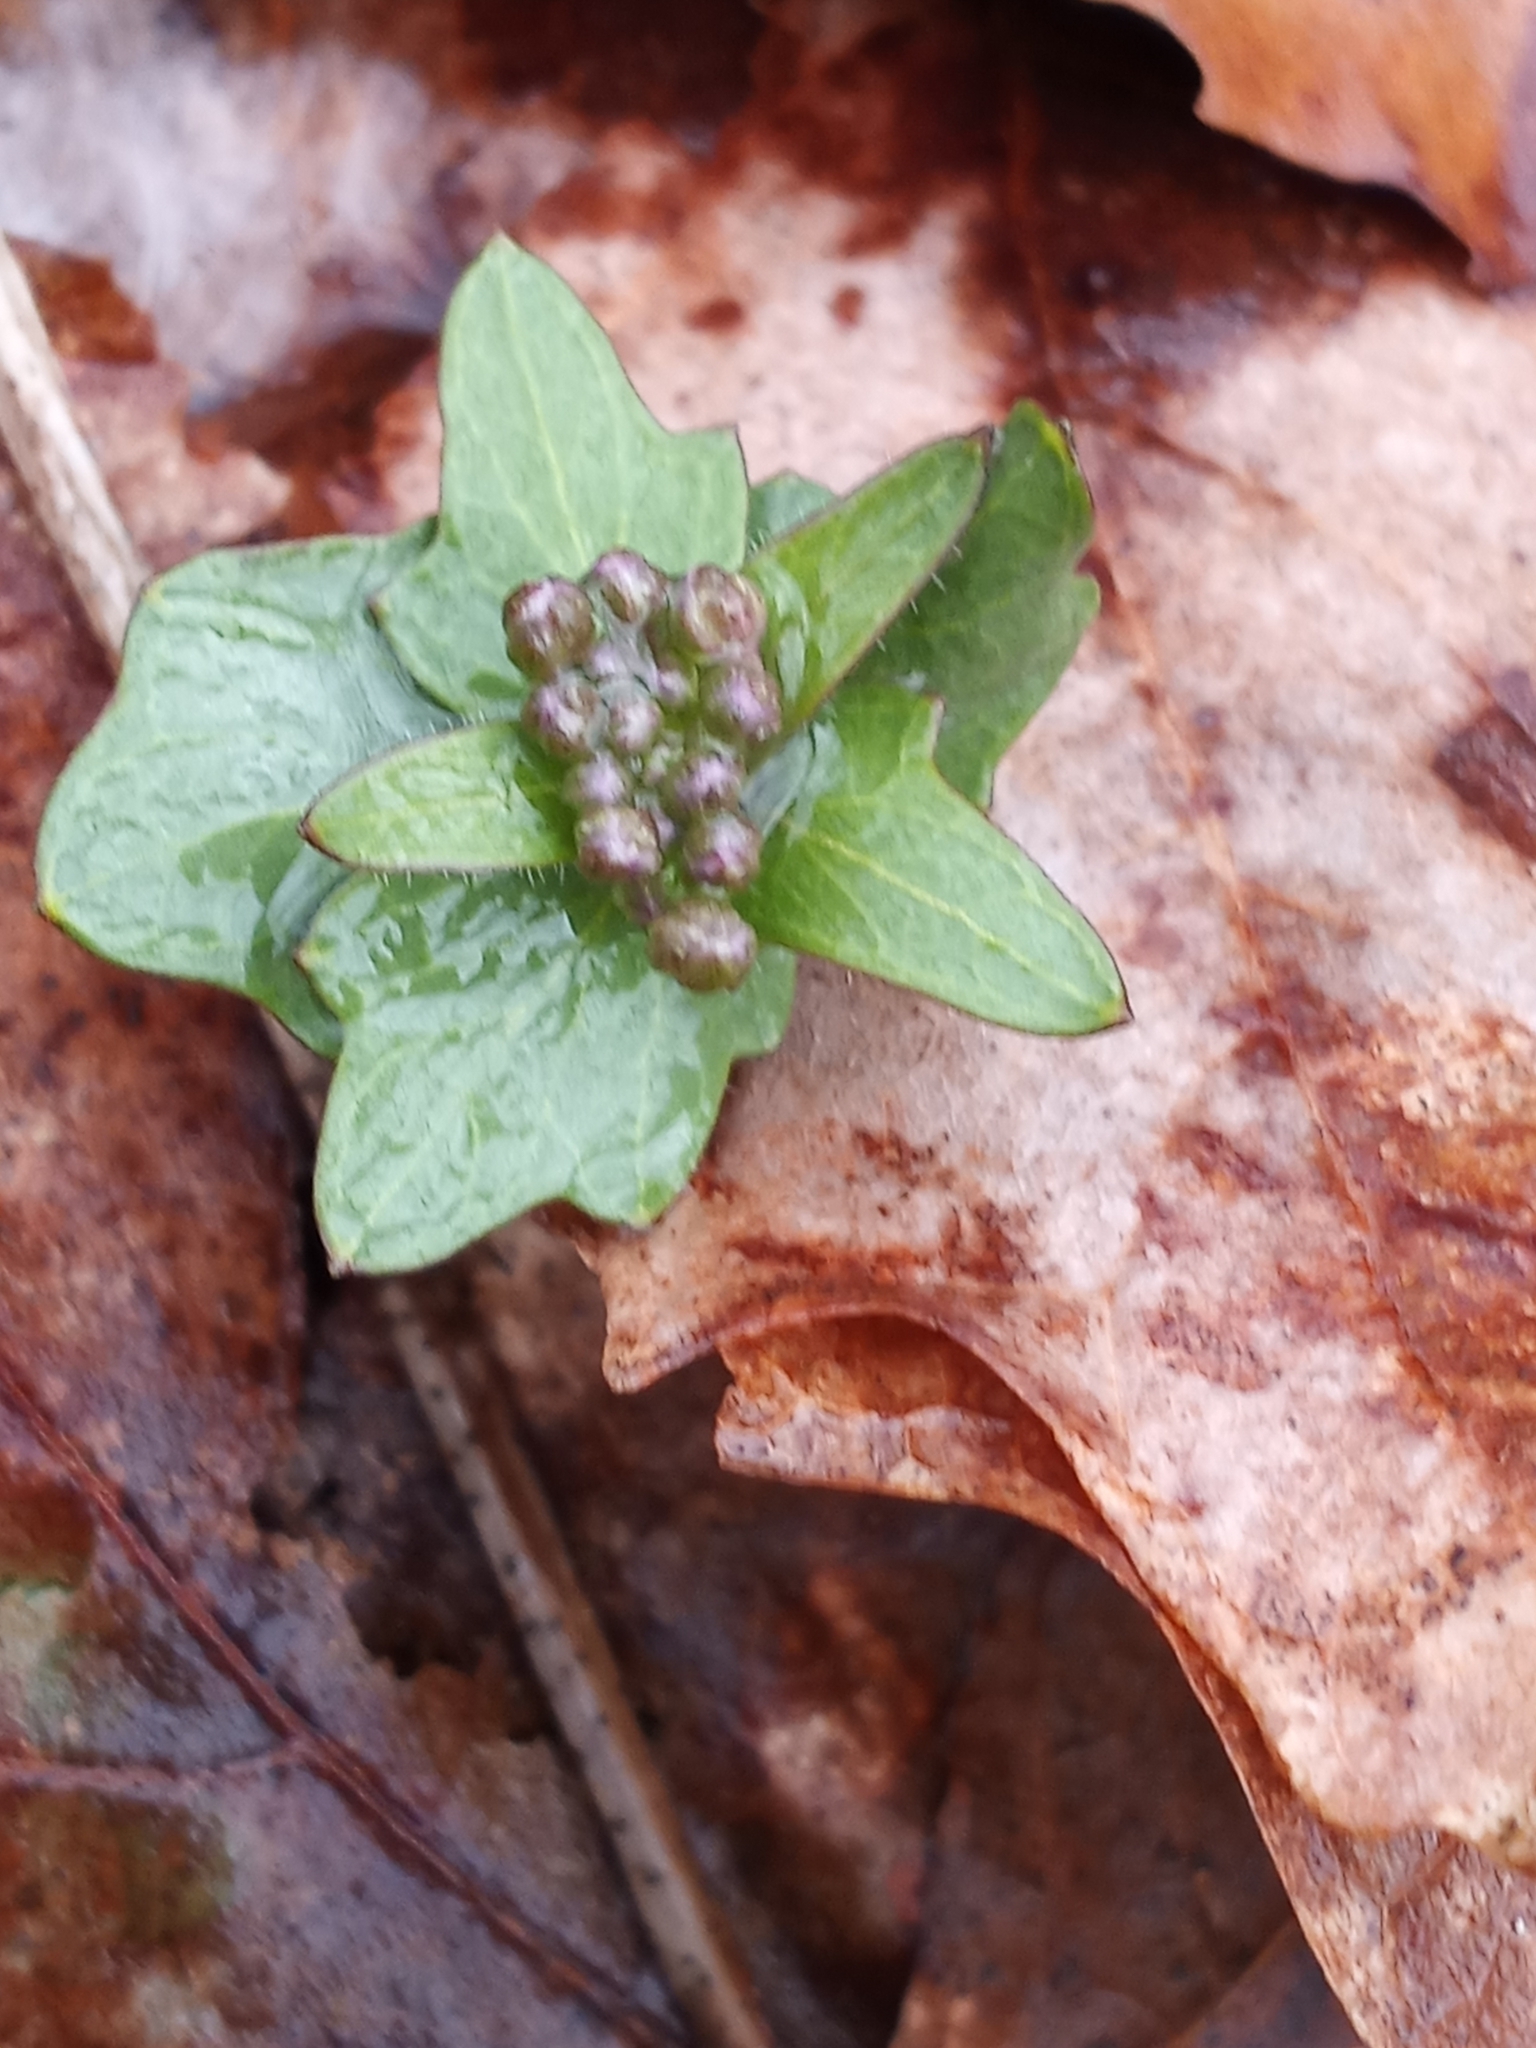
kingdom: Plantae
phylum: Tracheophyta
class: Magnoliopsida
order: Brassicales
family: Brassicaceae
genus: Cardamine
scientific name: Cardamine douglassii
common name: Purple cress
